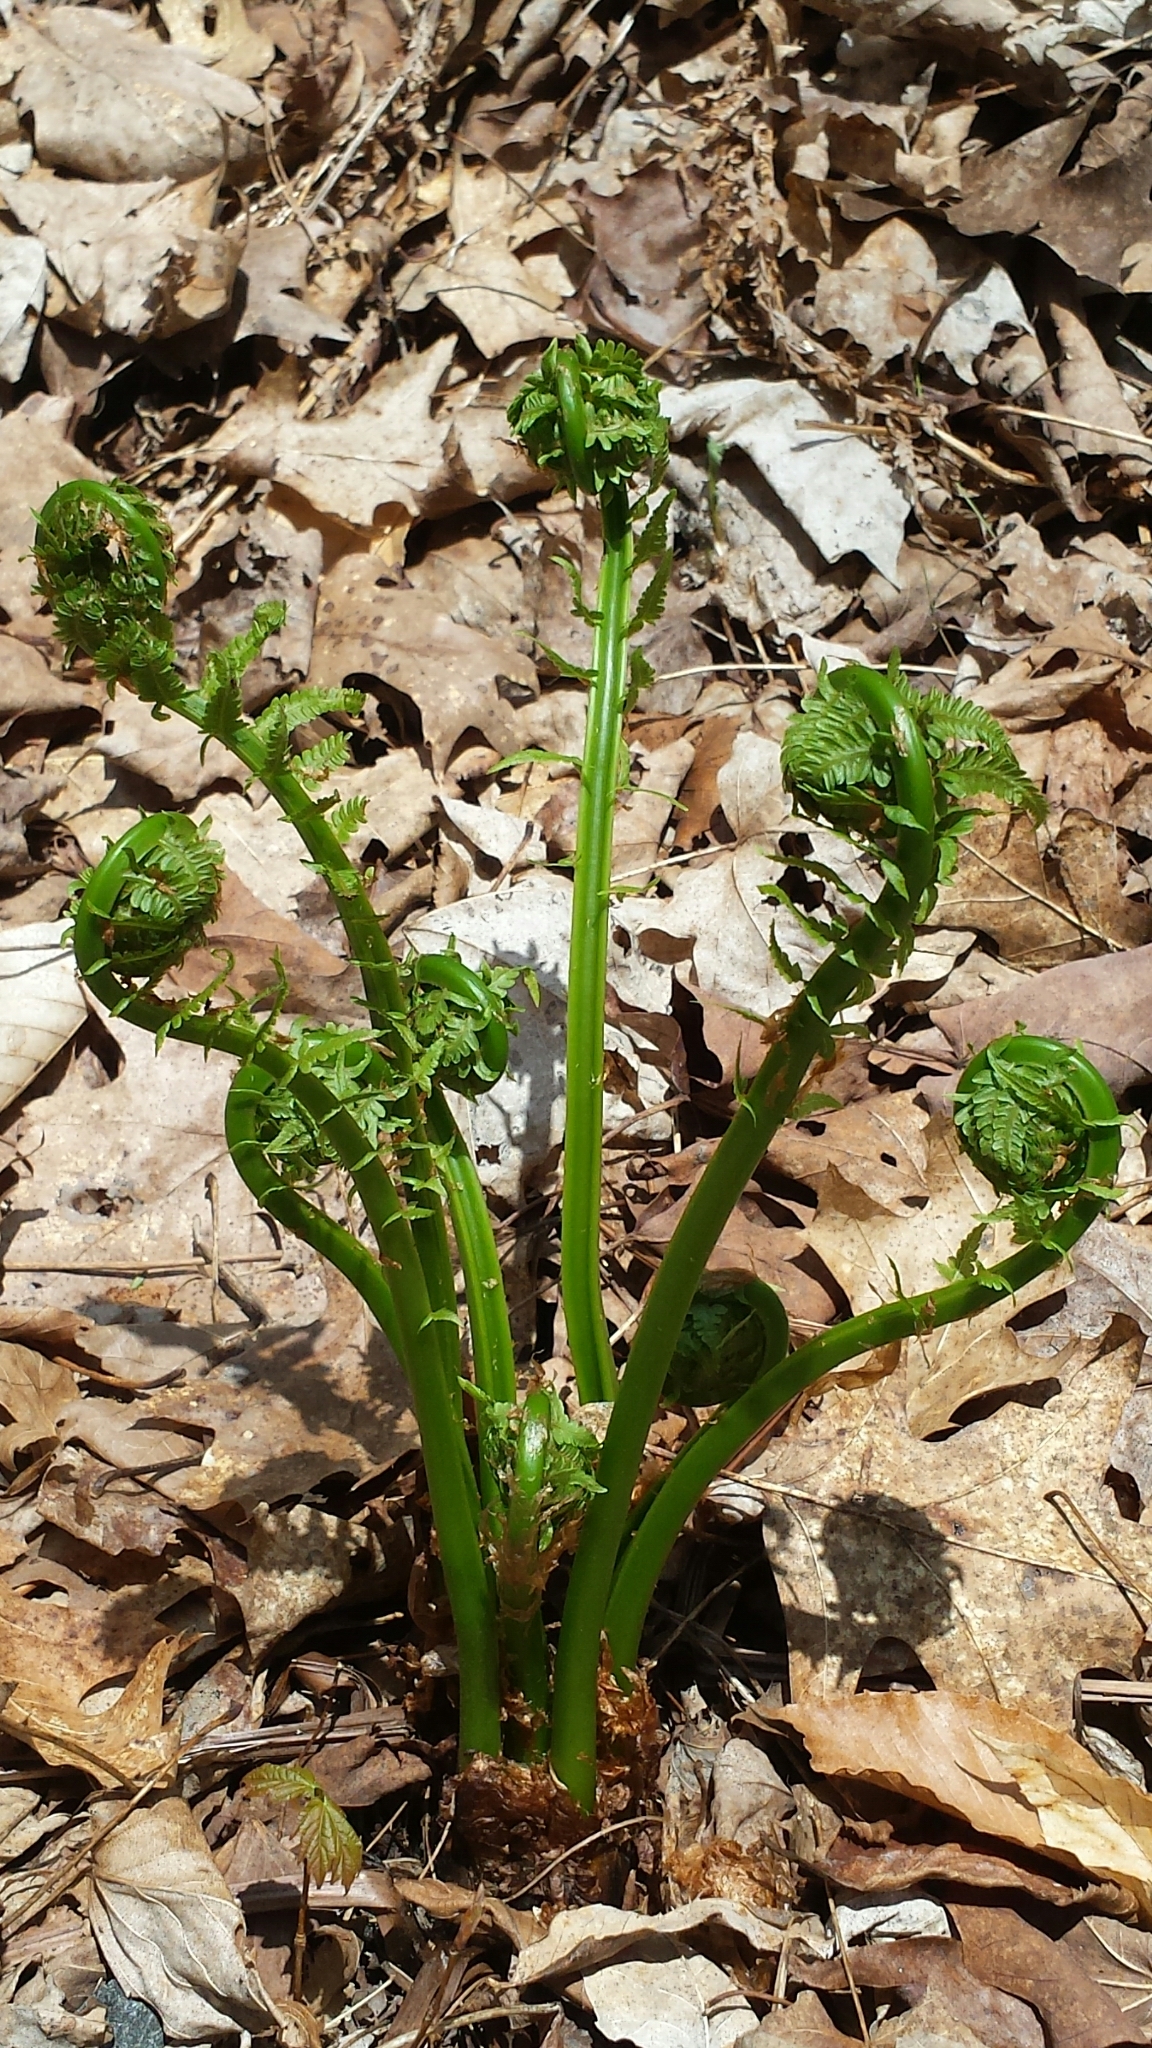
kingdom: Plantae
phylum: Tracheophyta
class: Polypodiopsida
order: Polypodiales
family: Onocleaceae
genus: Matteuccia
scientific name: Matteuccia struthiopteris
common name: Ostrich fern
